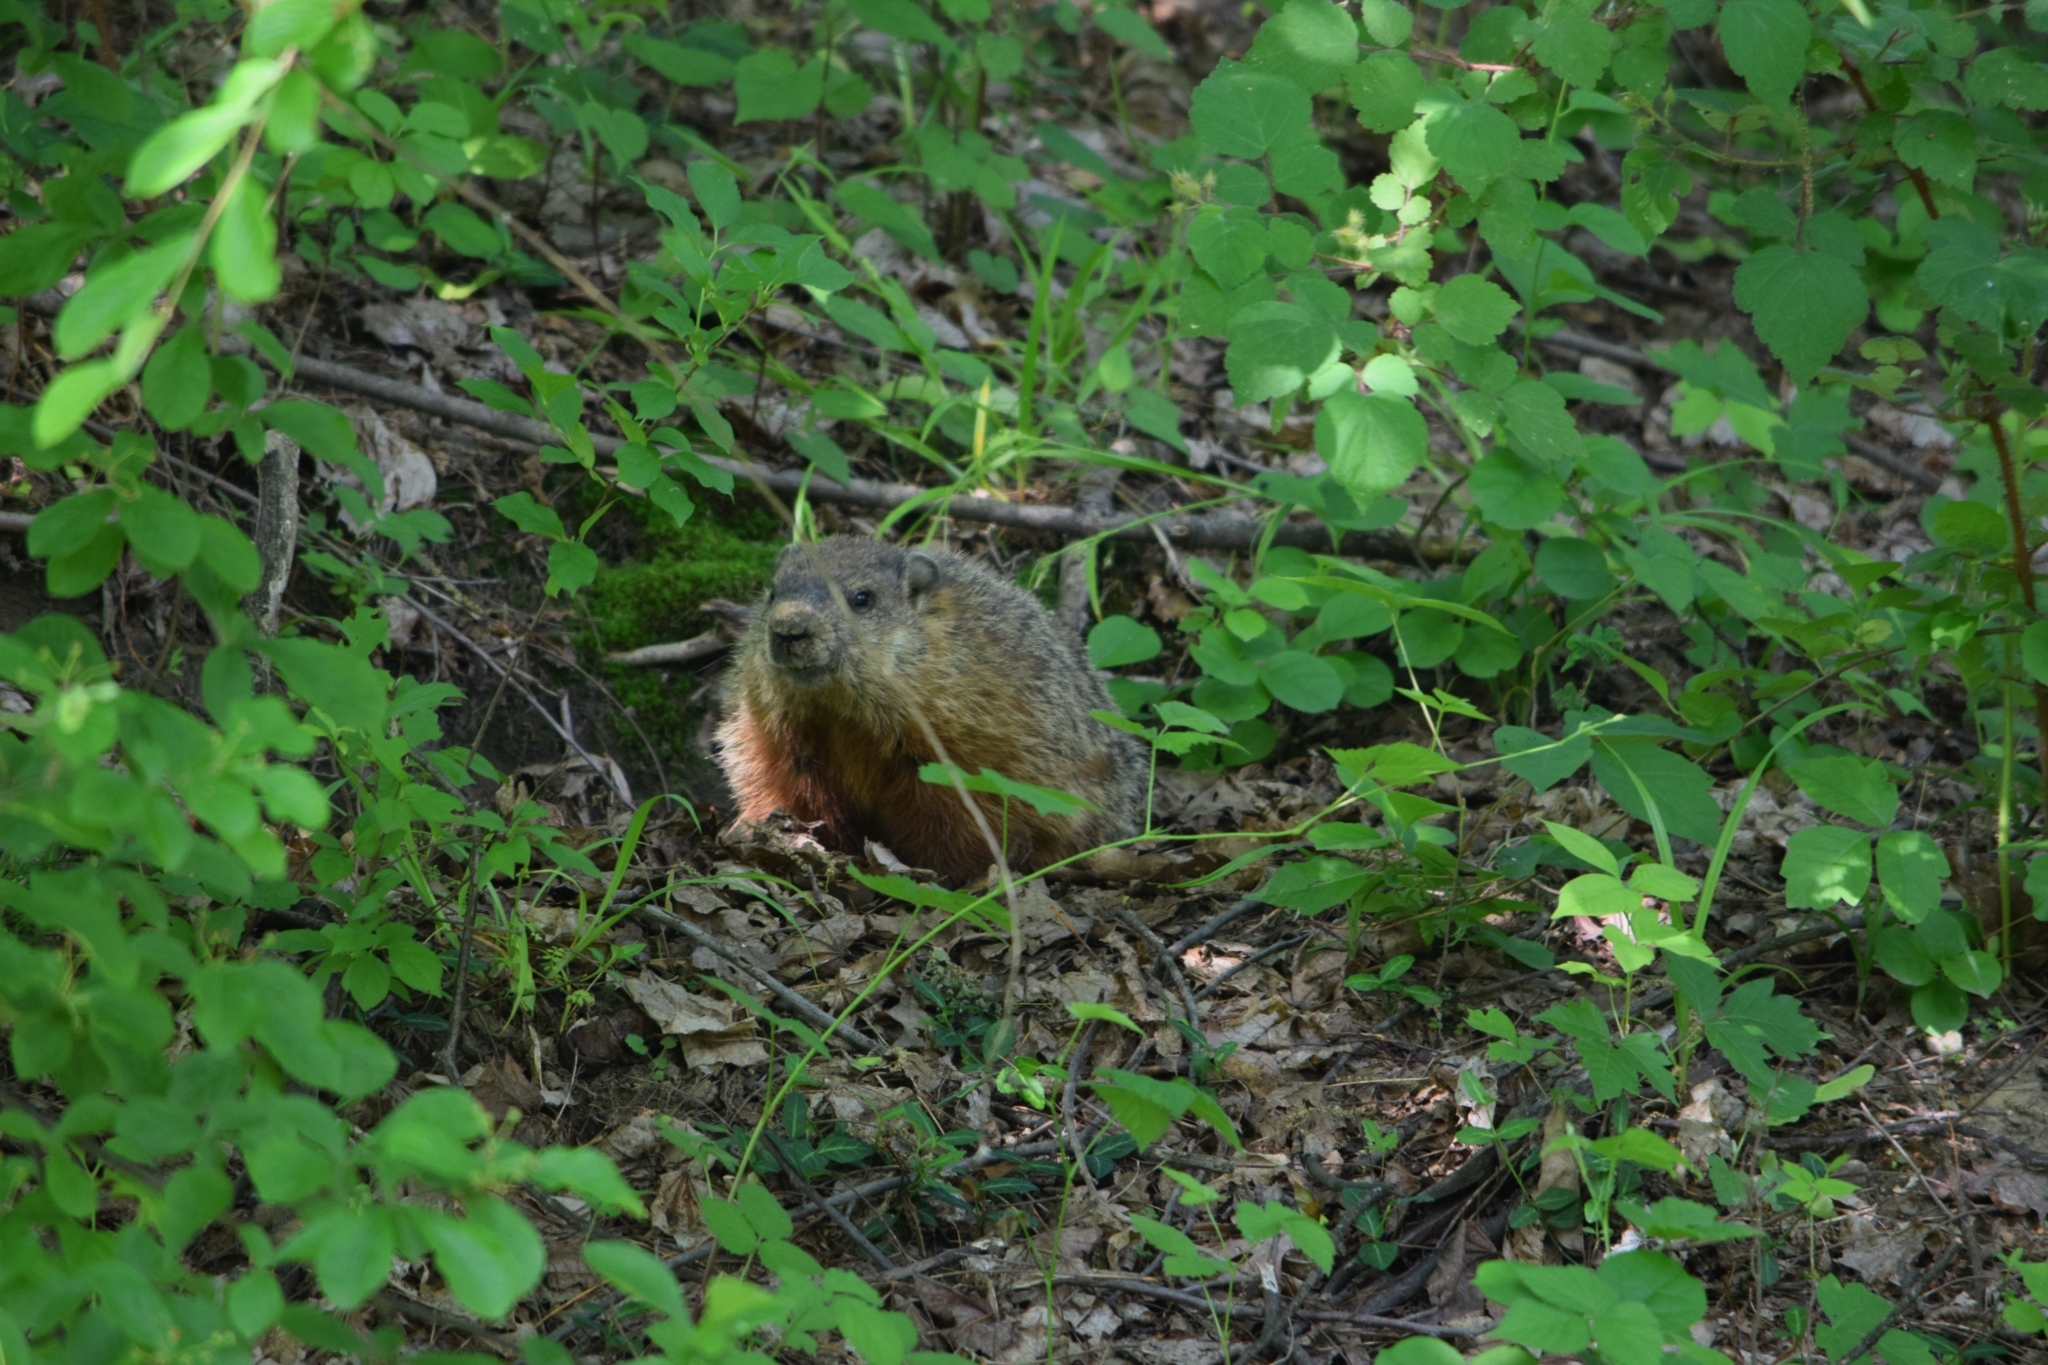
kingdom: Animalia
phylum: Chordata
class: Mammalia
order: Rodentia
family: Sciuridae
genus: Marmota
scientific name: Marmota monax
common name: Groundhog
